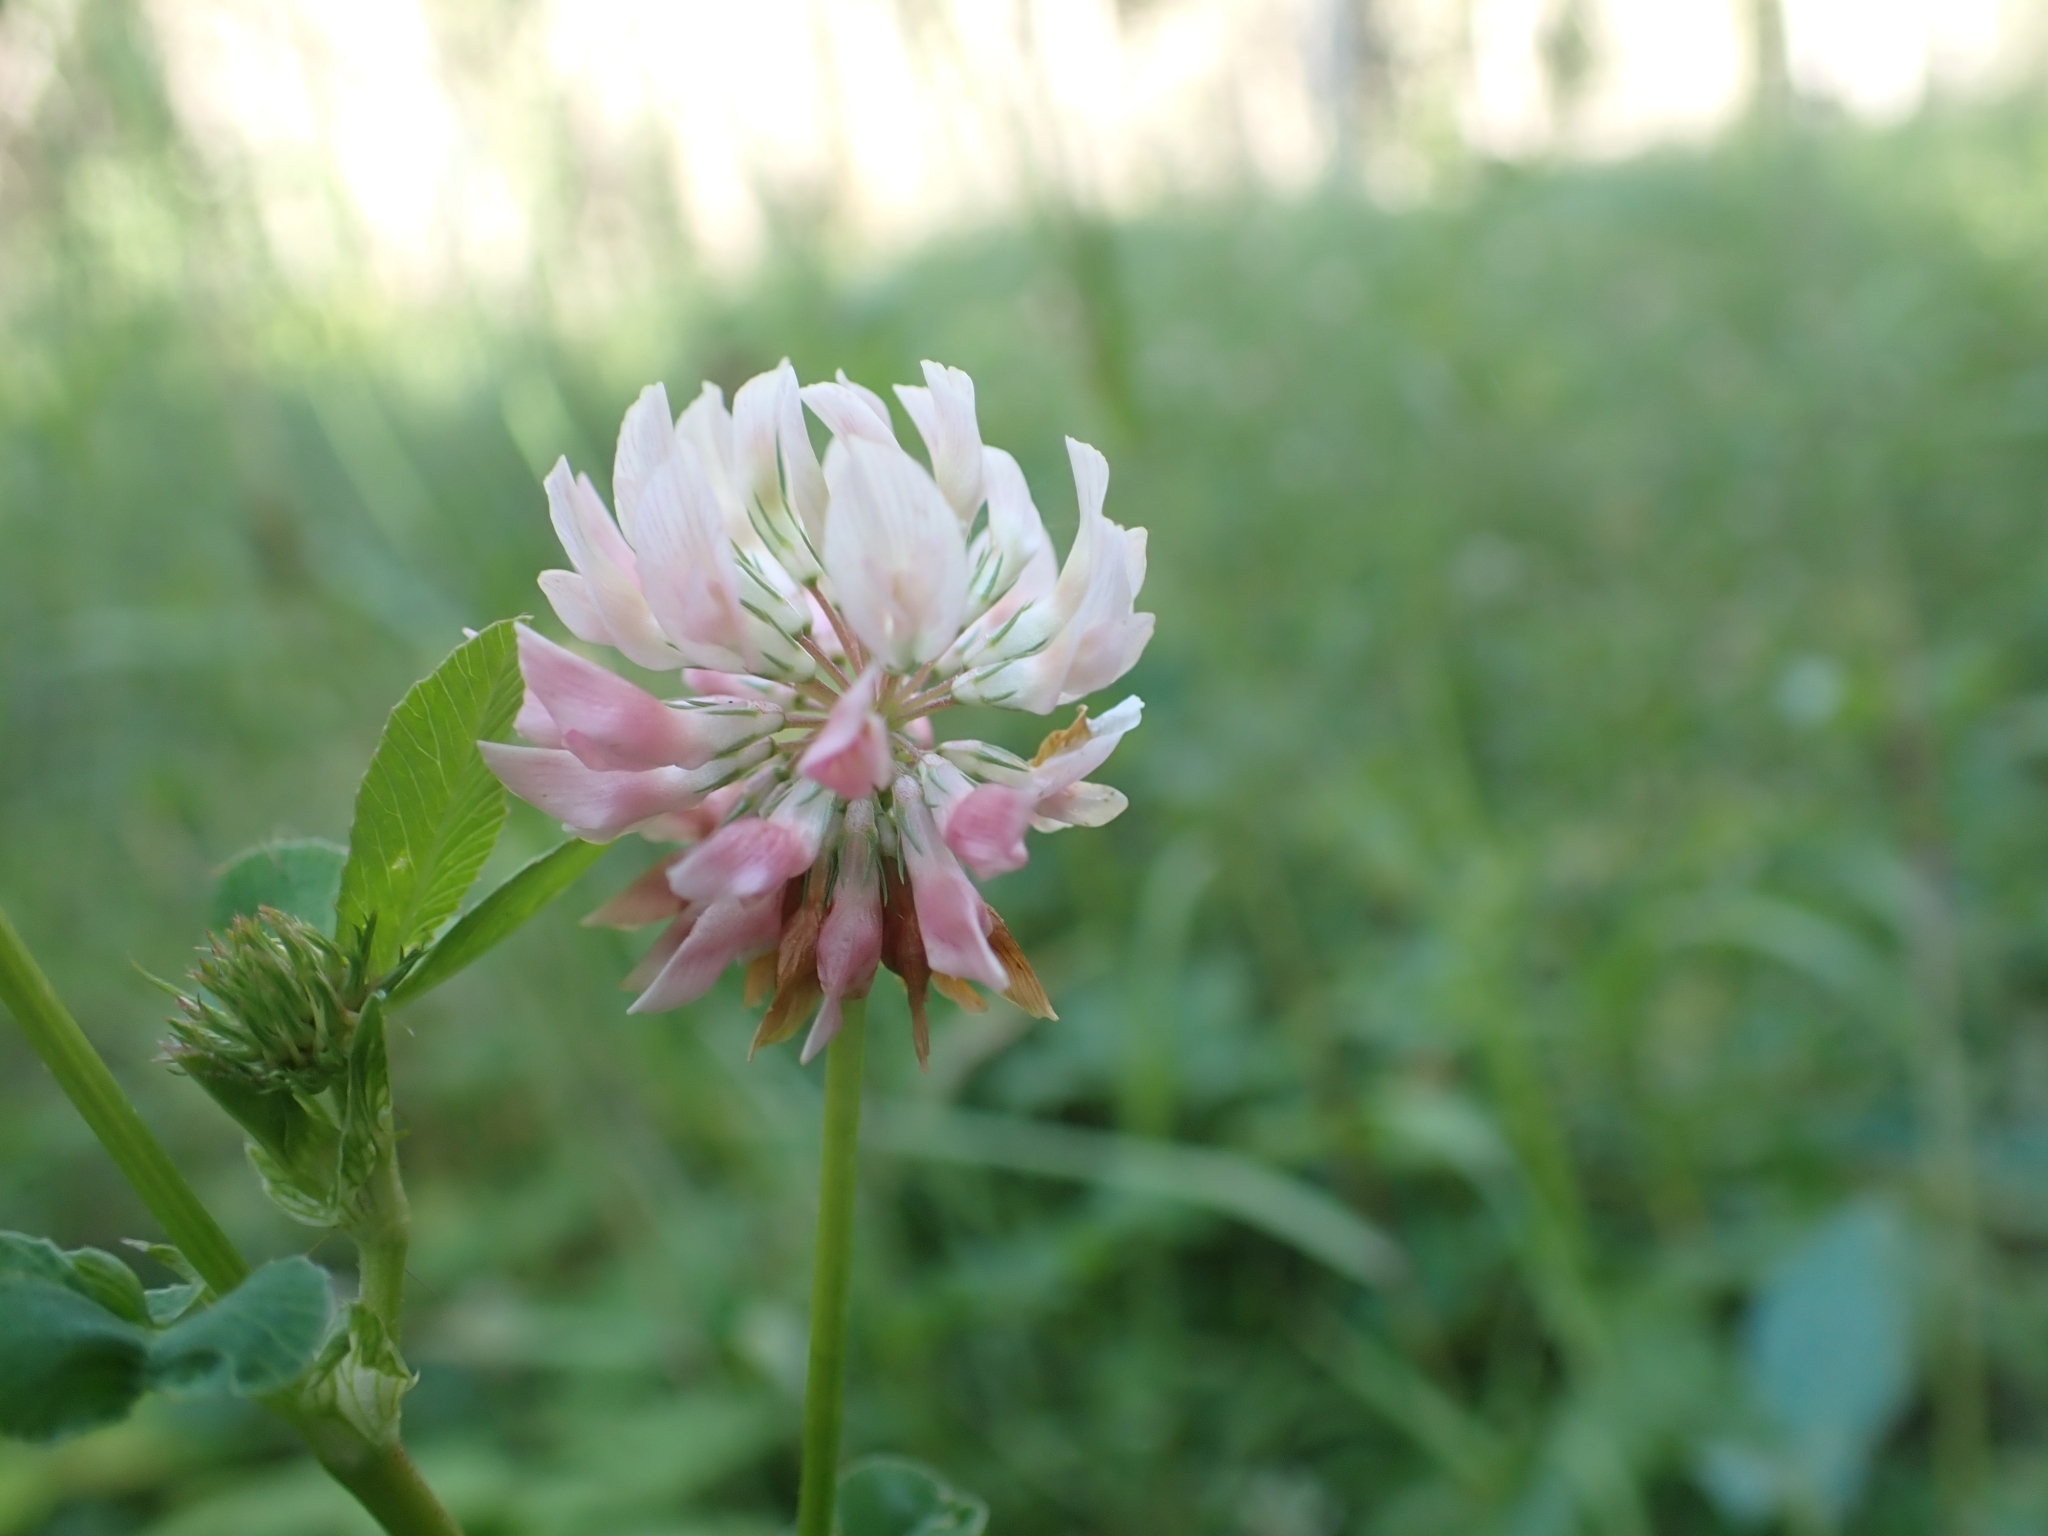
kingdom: Plantae
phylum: Tracheophyta
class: Magnoliopsida
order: Fabales
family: Fabaceae
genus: Trifolium
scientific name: Trifolium hybridum
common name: Alsike clover
